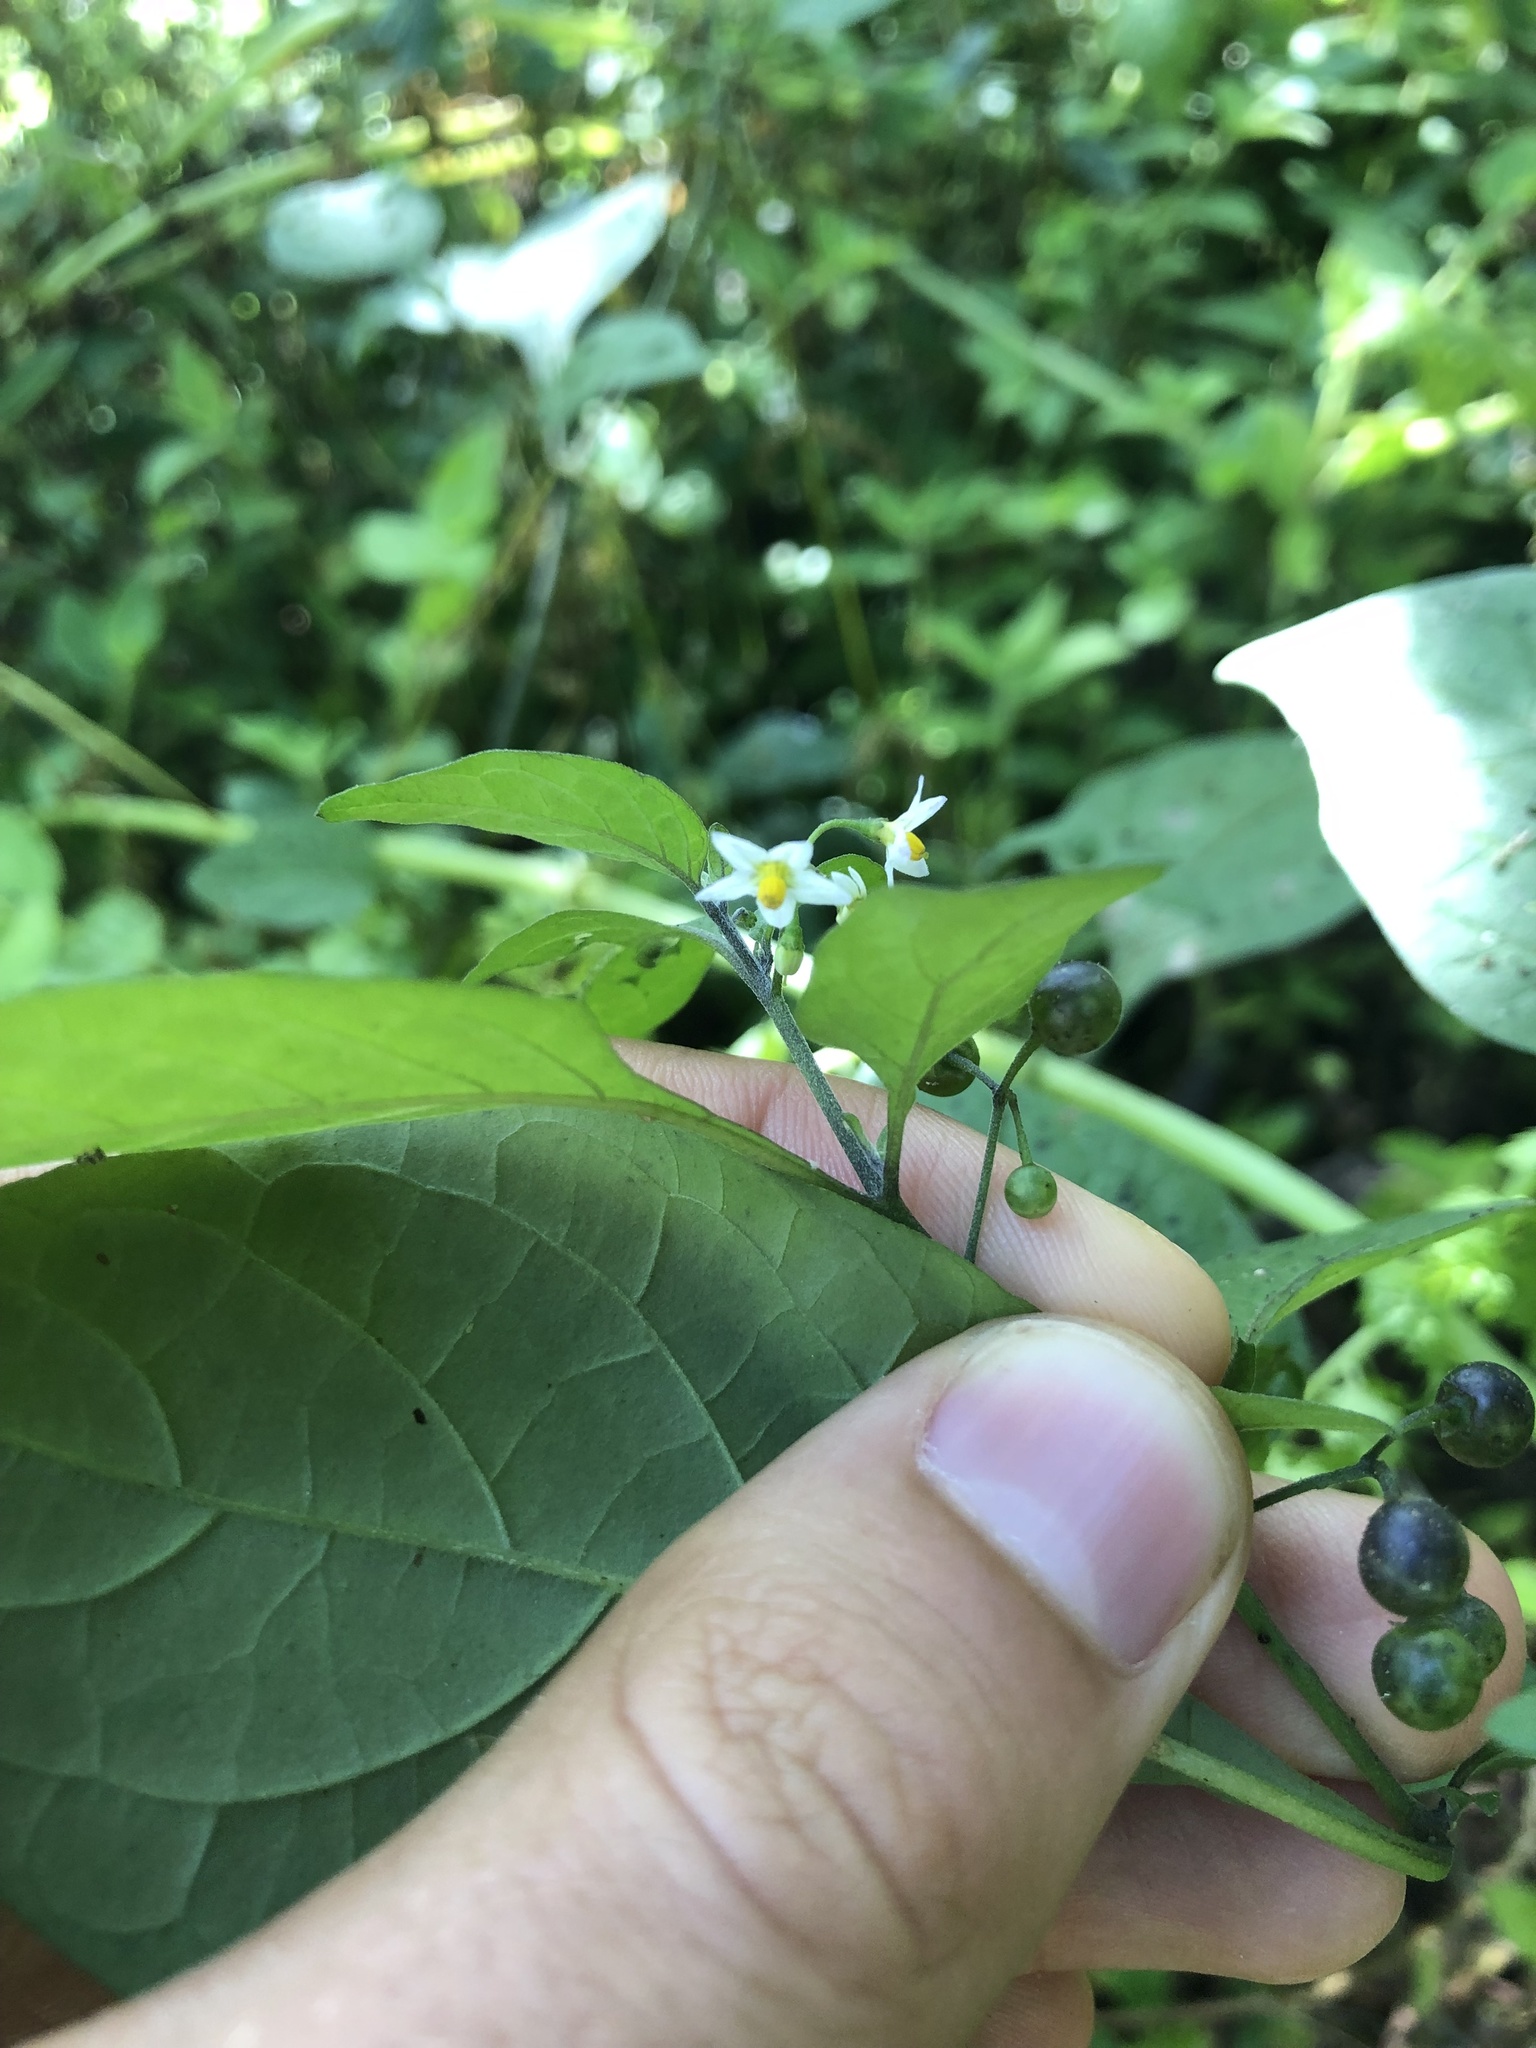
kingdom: Plantae
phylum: Tracheophyta
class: Magnoliopsida
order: Solanales
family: Solanaceae
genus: Solanum
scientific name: Solanum americanum
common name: American black nightshade
